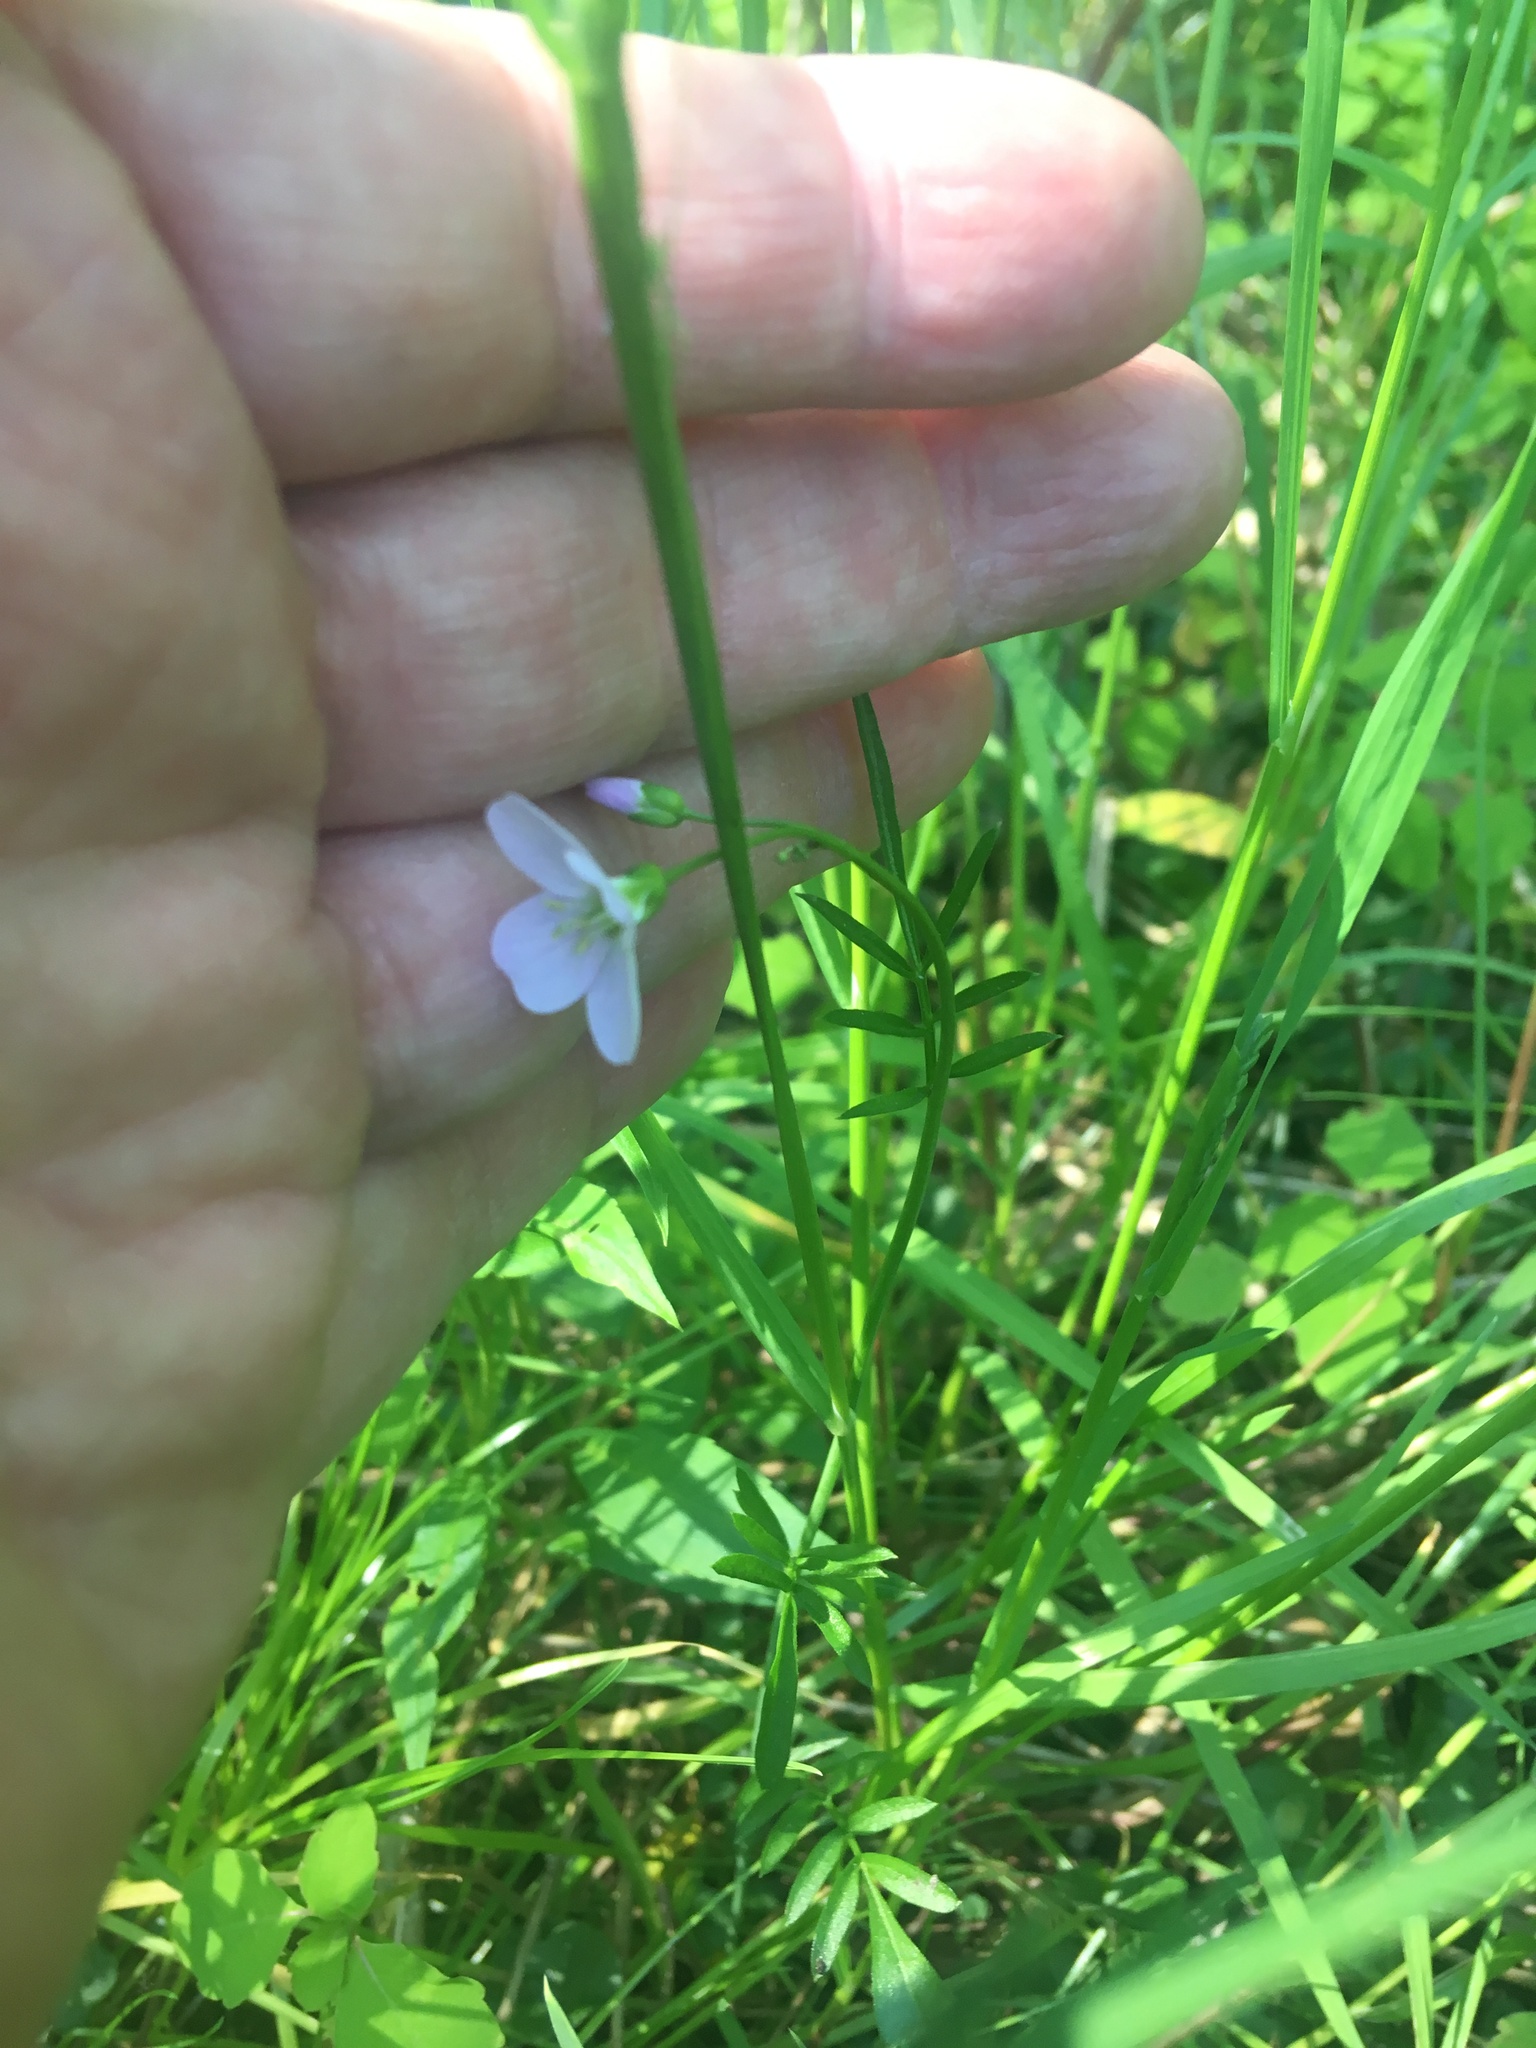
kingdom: Plantae
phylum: Tracheophyta
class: Magnoliopsida
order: Brassicales
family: Brassicaceae
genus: Cardamine
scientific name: Cardamine pratensis
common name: Cuckoo flower
